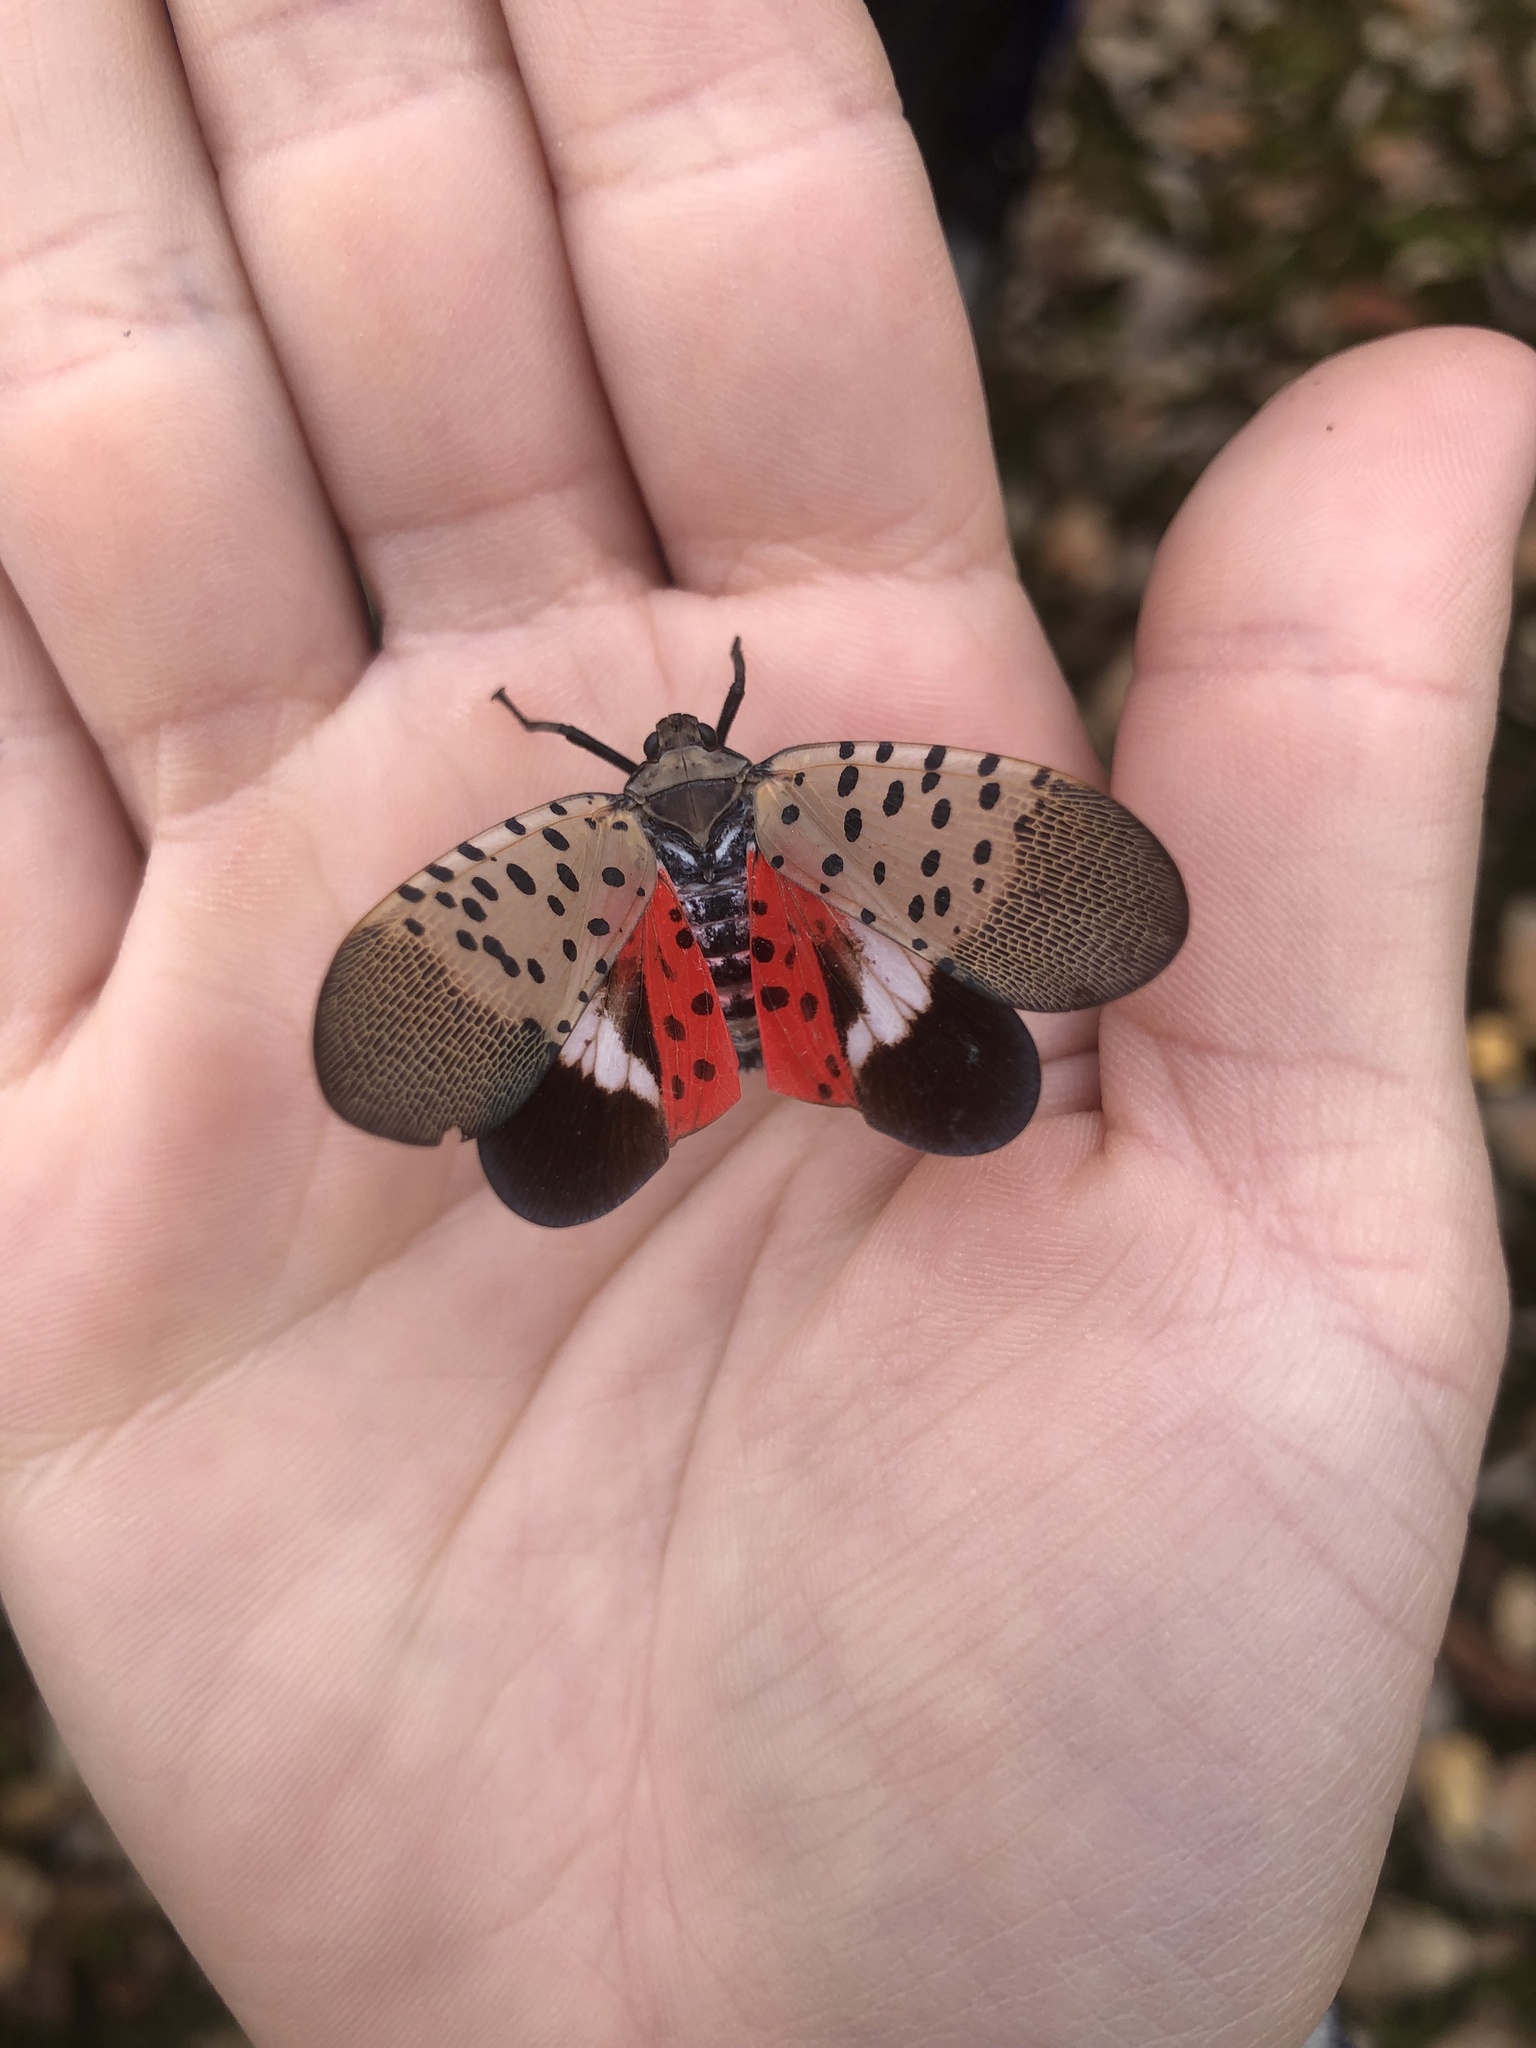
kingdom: Animalia
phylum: Arthropoda
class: Insecta
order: Hemiptera
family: Fulgoridae
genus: Lycorma
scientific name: Lycorma delicatula
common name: Spotted lanternfly
